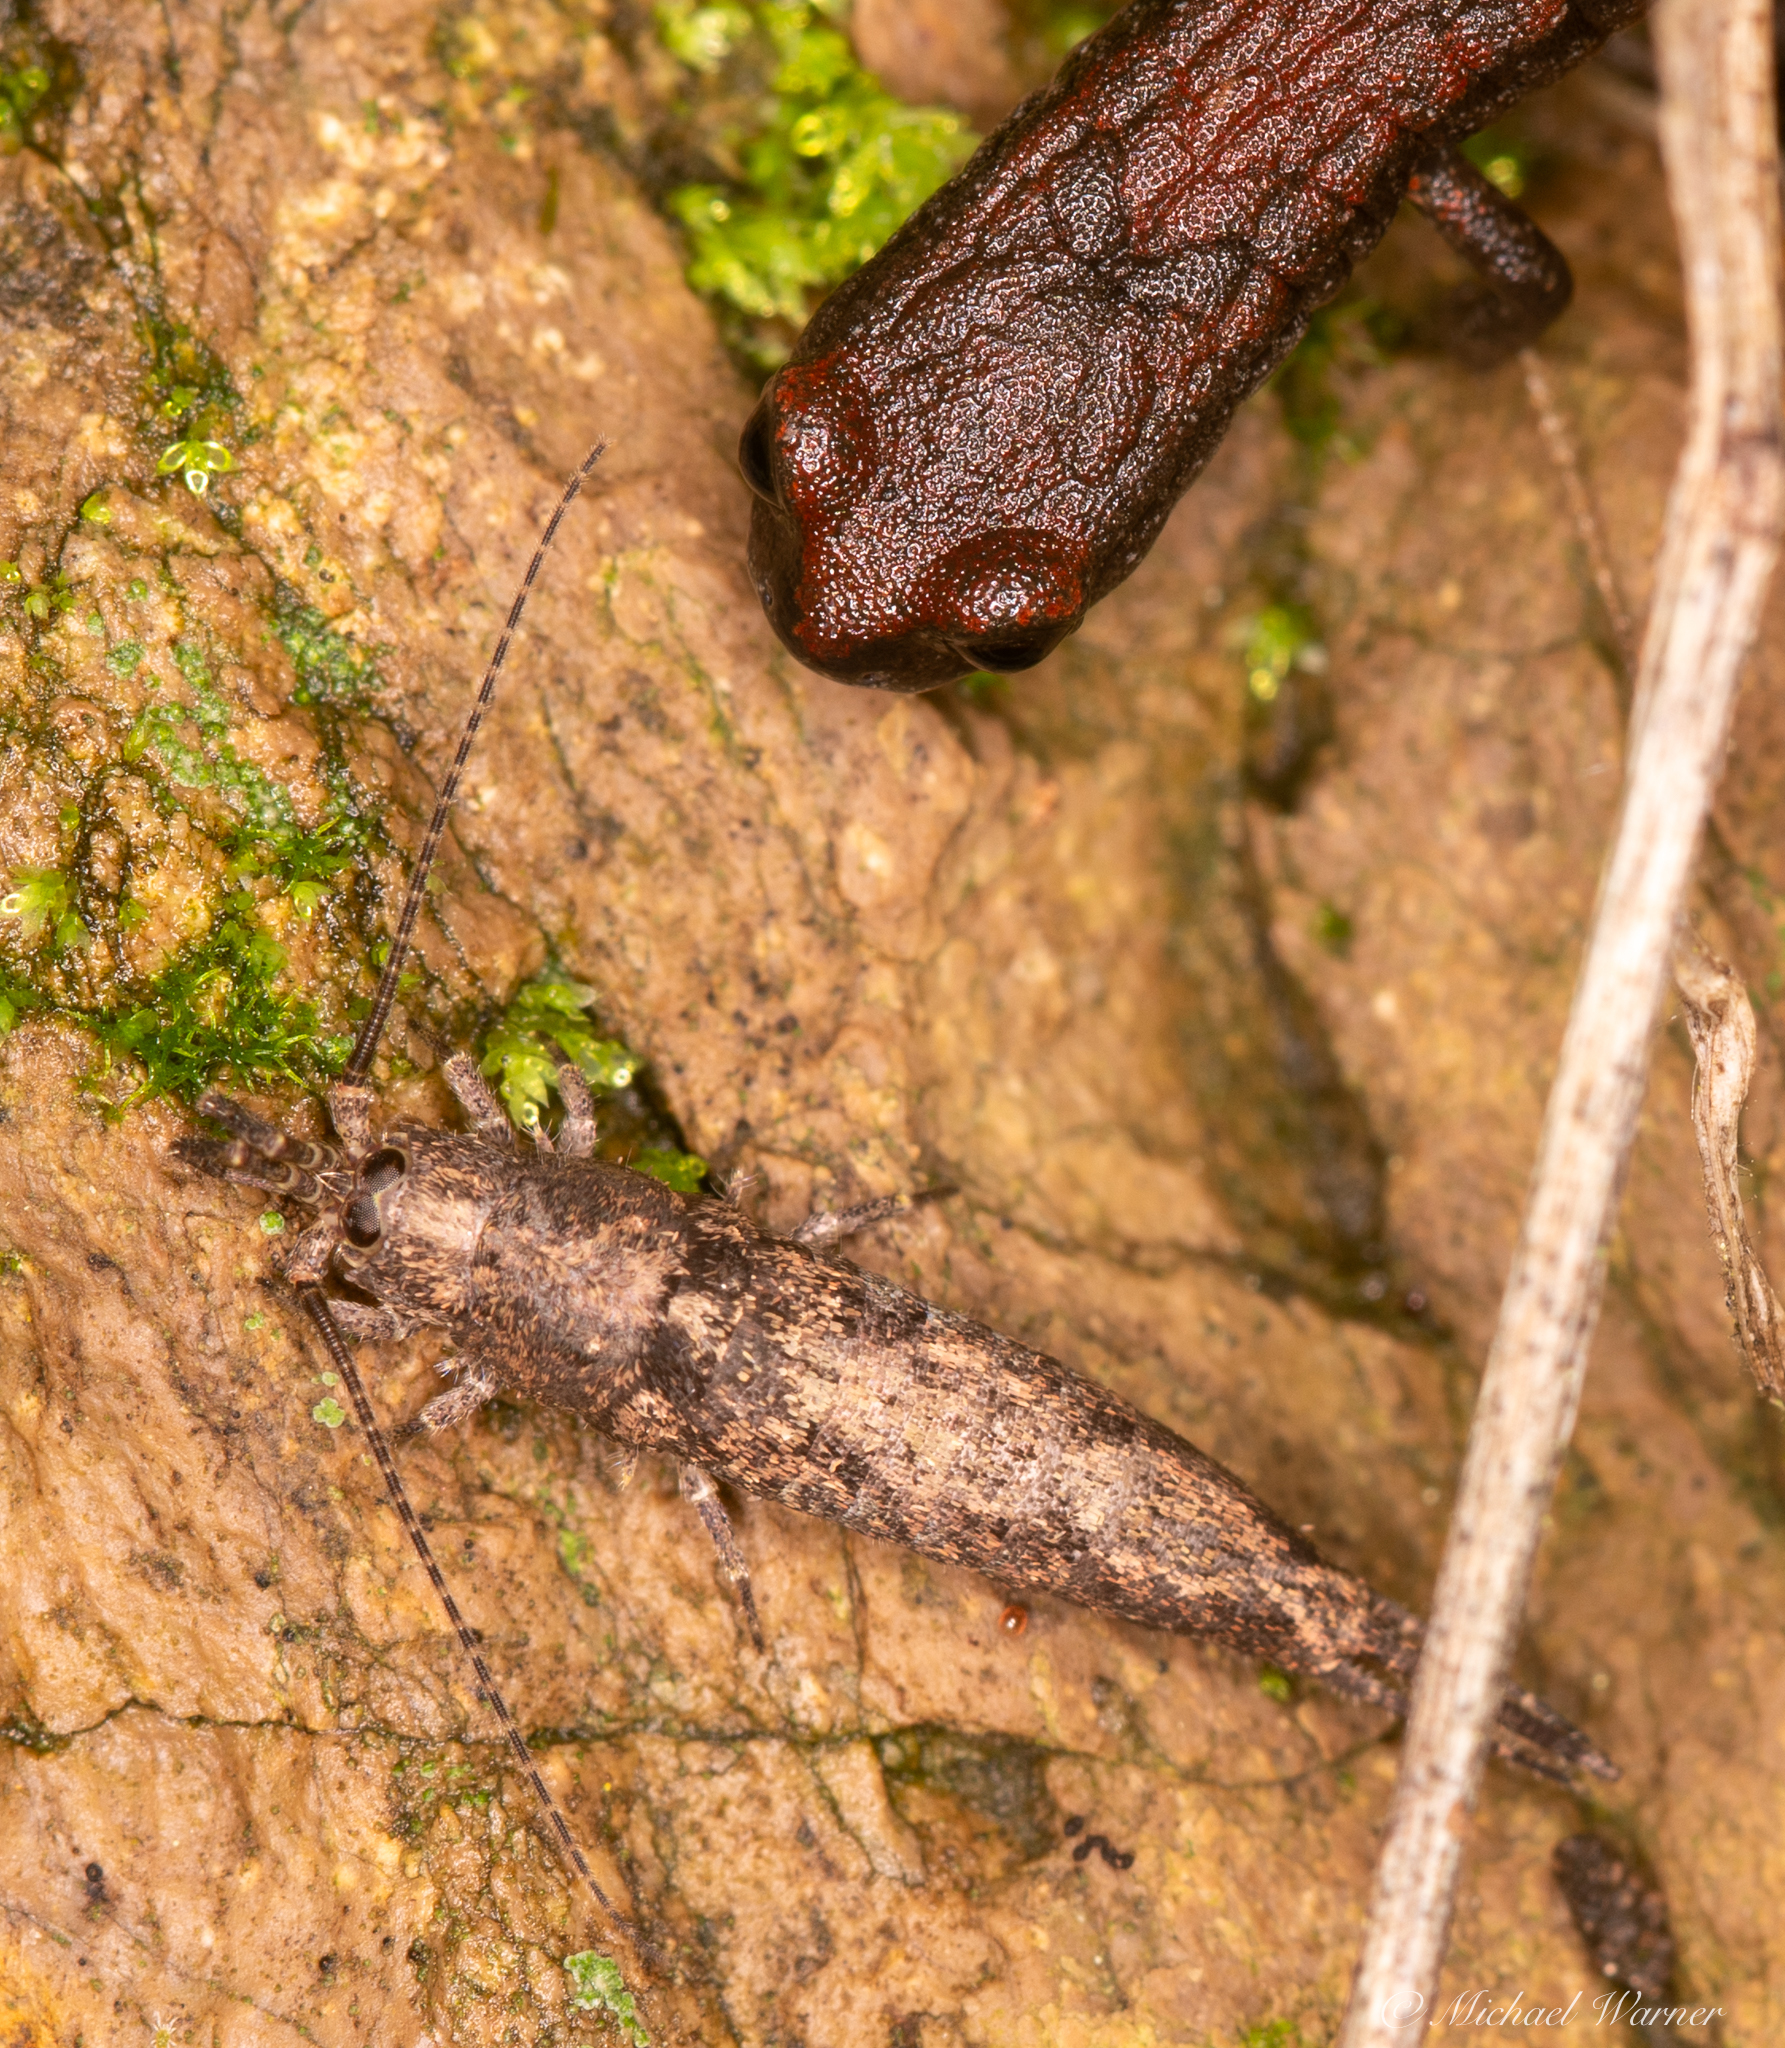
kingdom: Animalia
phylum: Chordata
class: Amphibia
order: Caudata
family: Plethodontidae
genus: Batrachoseps
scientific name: Batrachoseps attenuatus
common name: California slender salamander
